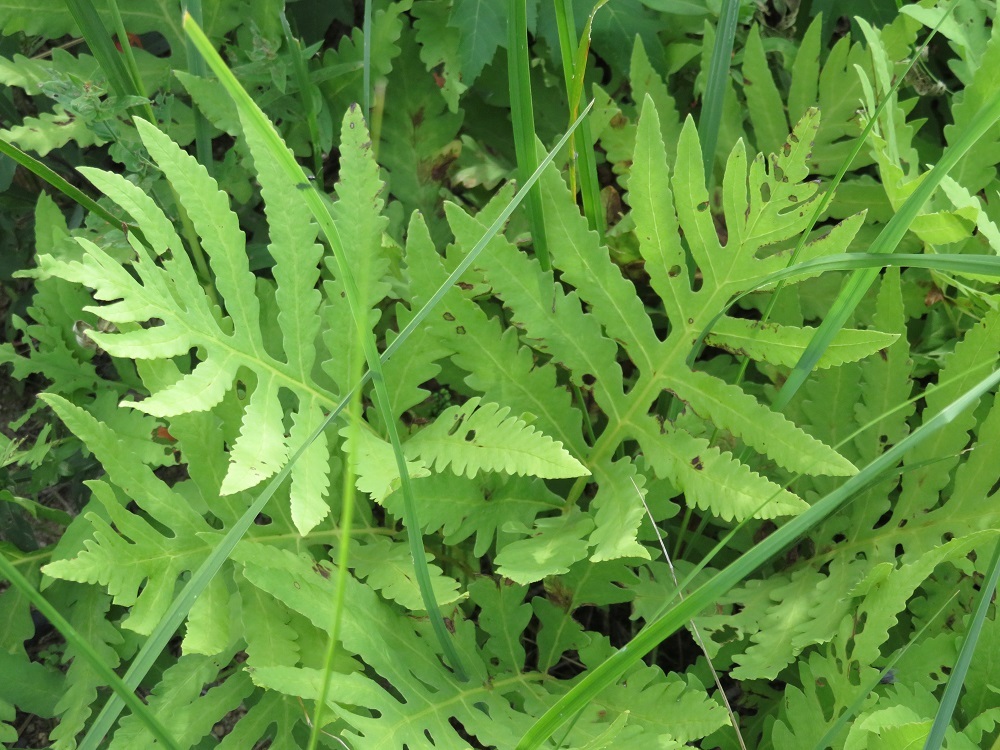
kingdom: Plantae
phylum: Tracheophyta
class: Polypodiopsida
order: Polypodiales
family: Onocleaceae
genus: Onoclea
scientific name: Onoclea sensibilis
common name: Sensitive fern
